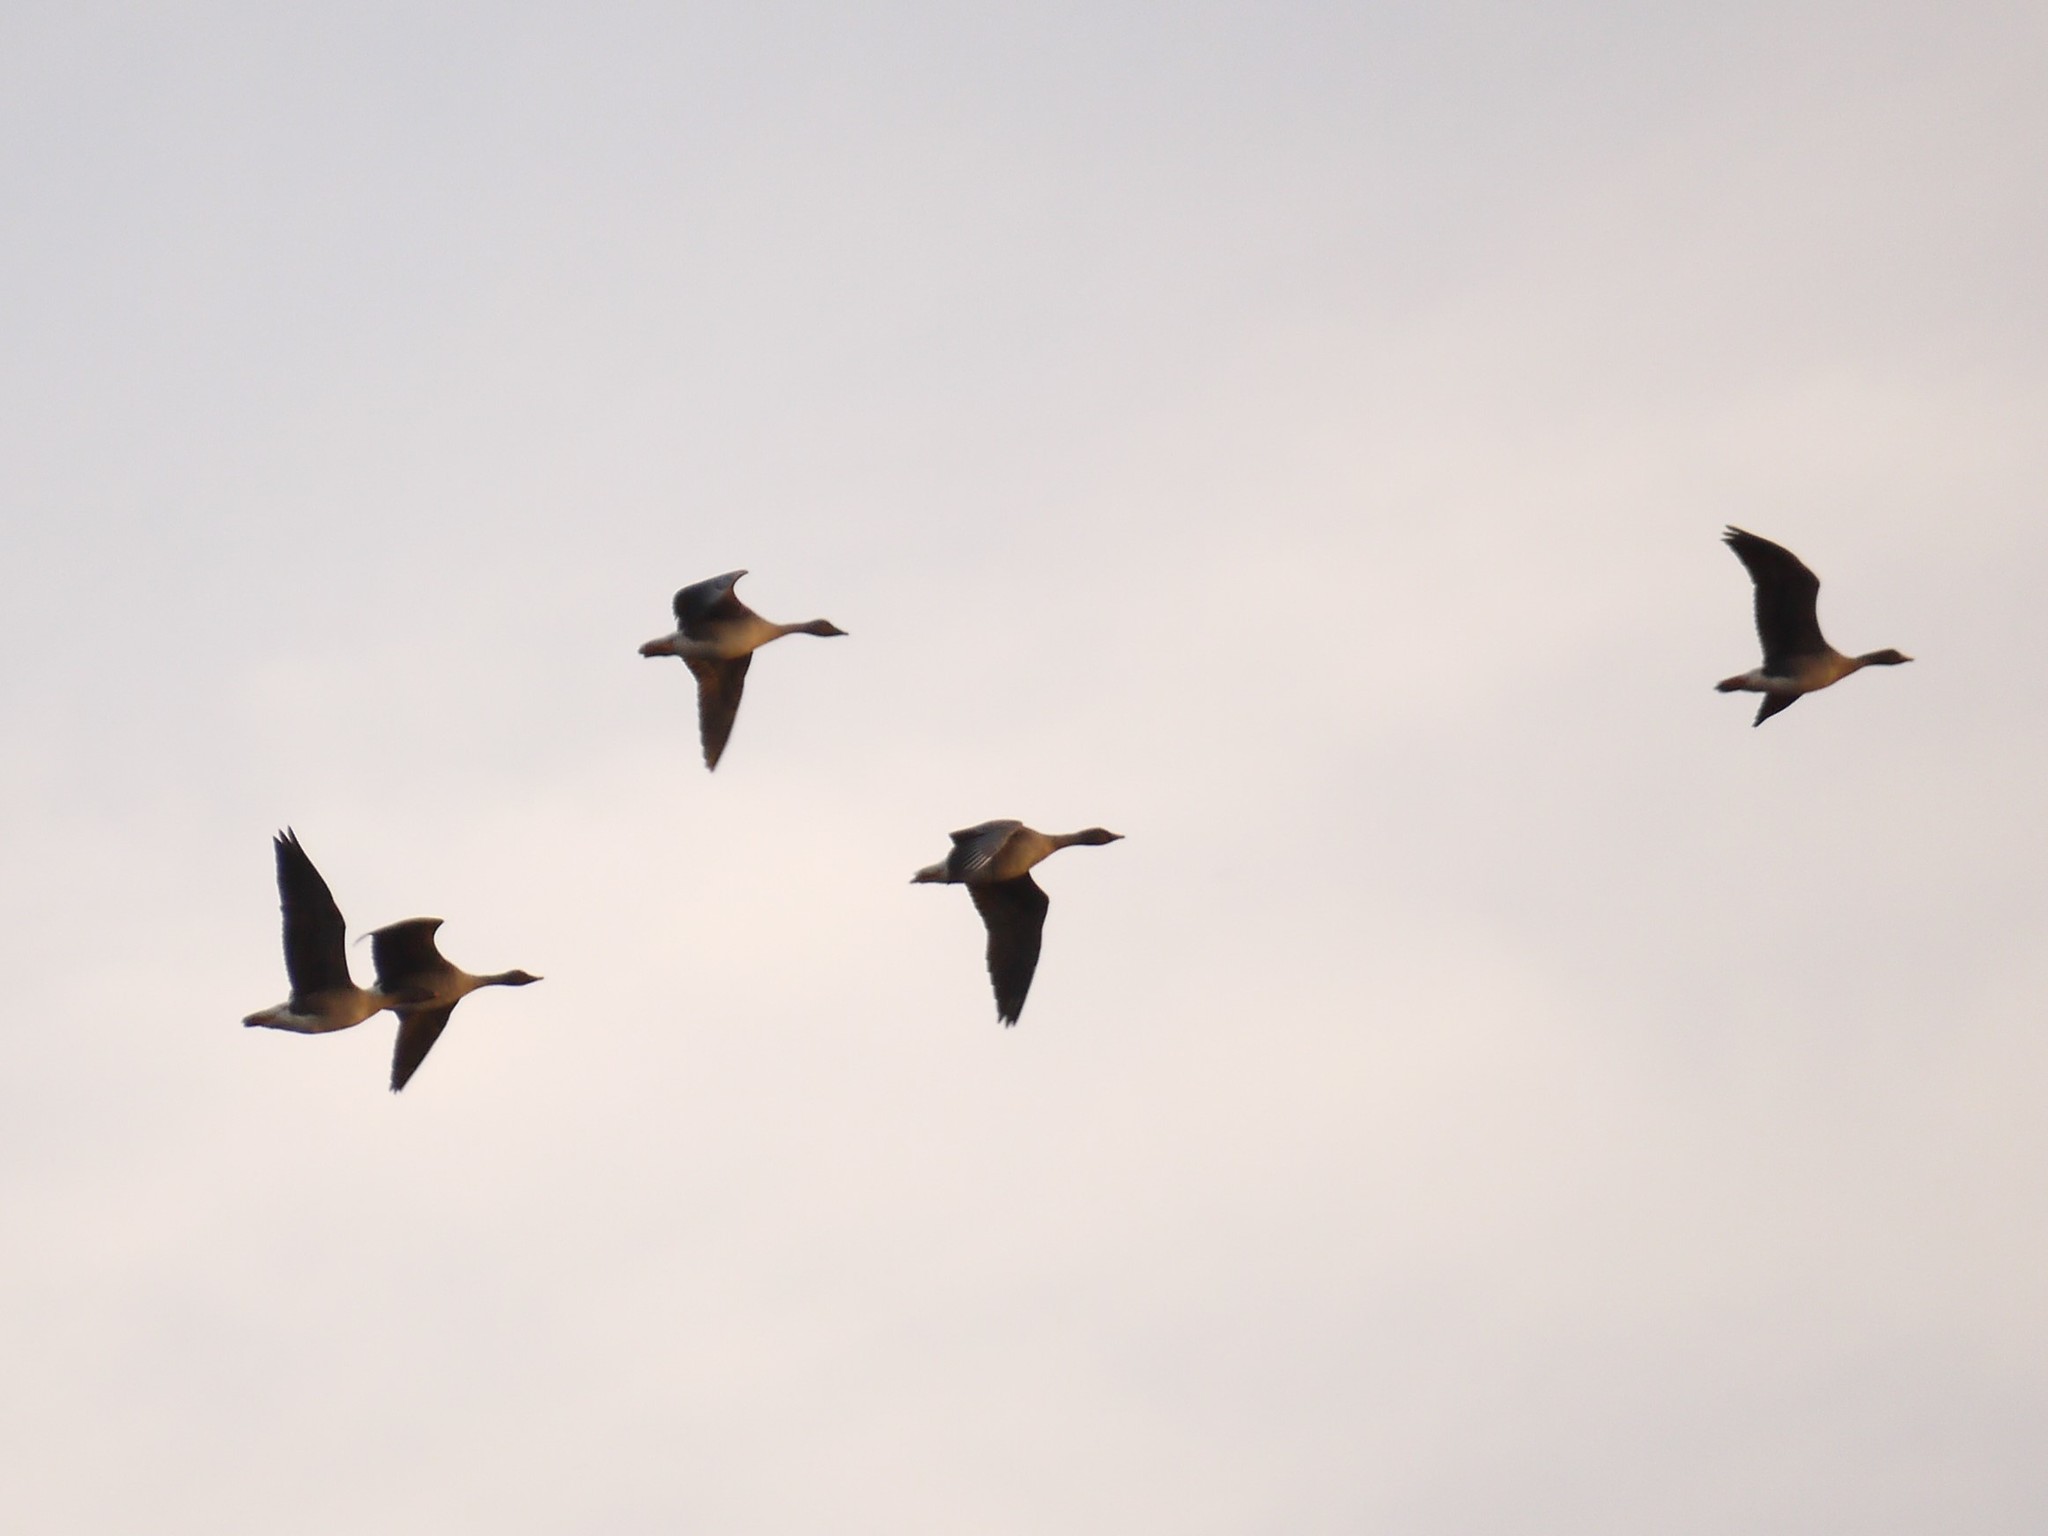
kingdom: Animalia
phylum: Chordata
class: Aves
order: Anseriformes
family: Anatidae
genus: Anser
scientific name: Anser serrirostris
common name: Tundra bean goose
